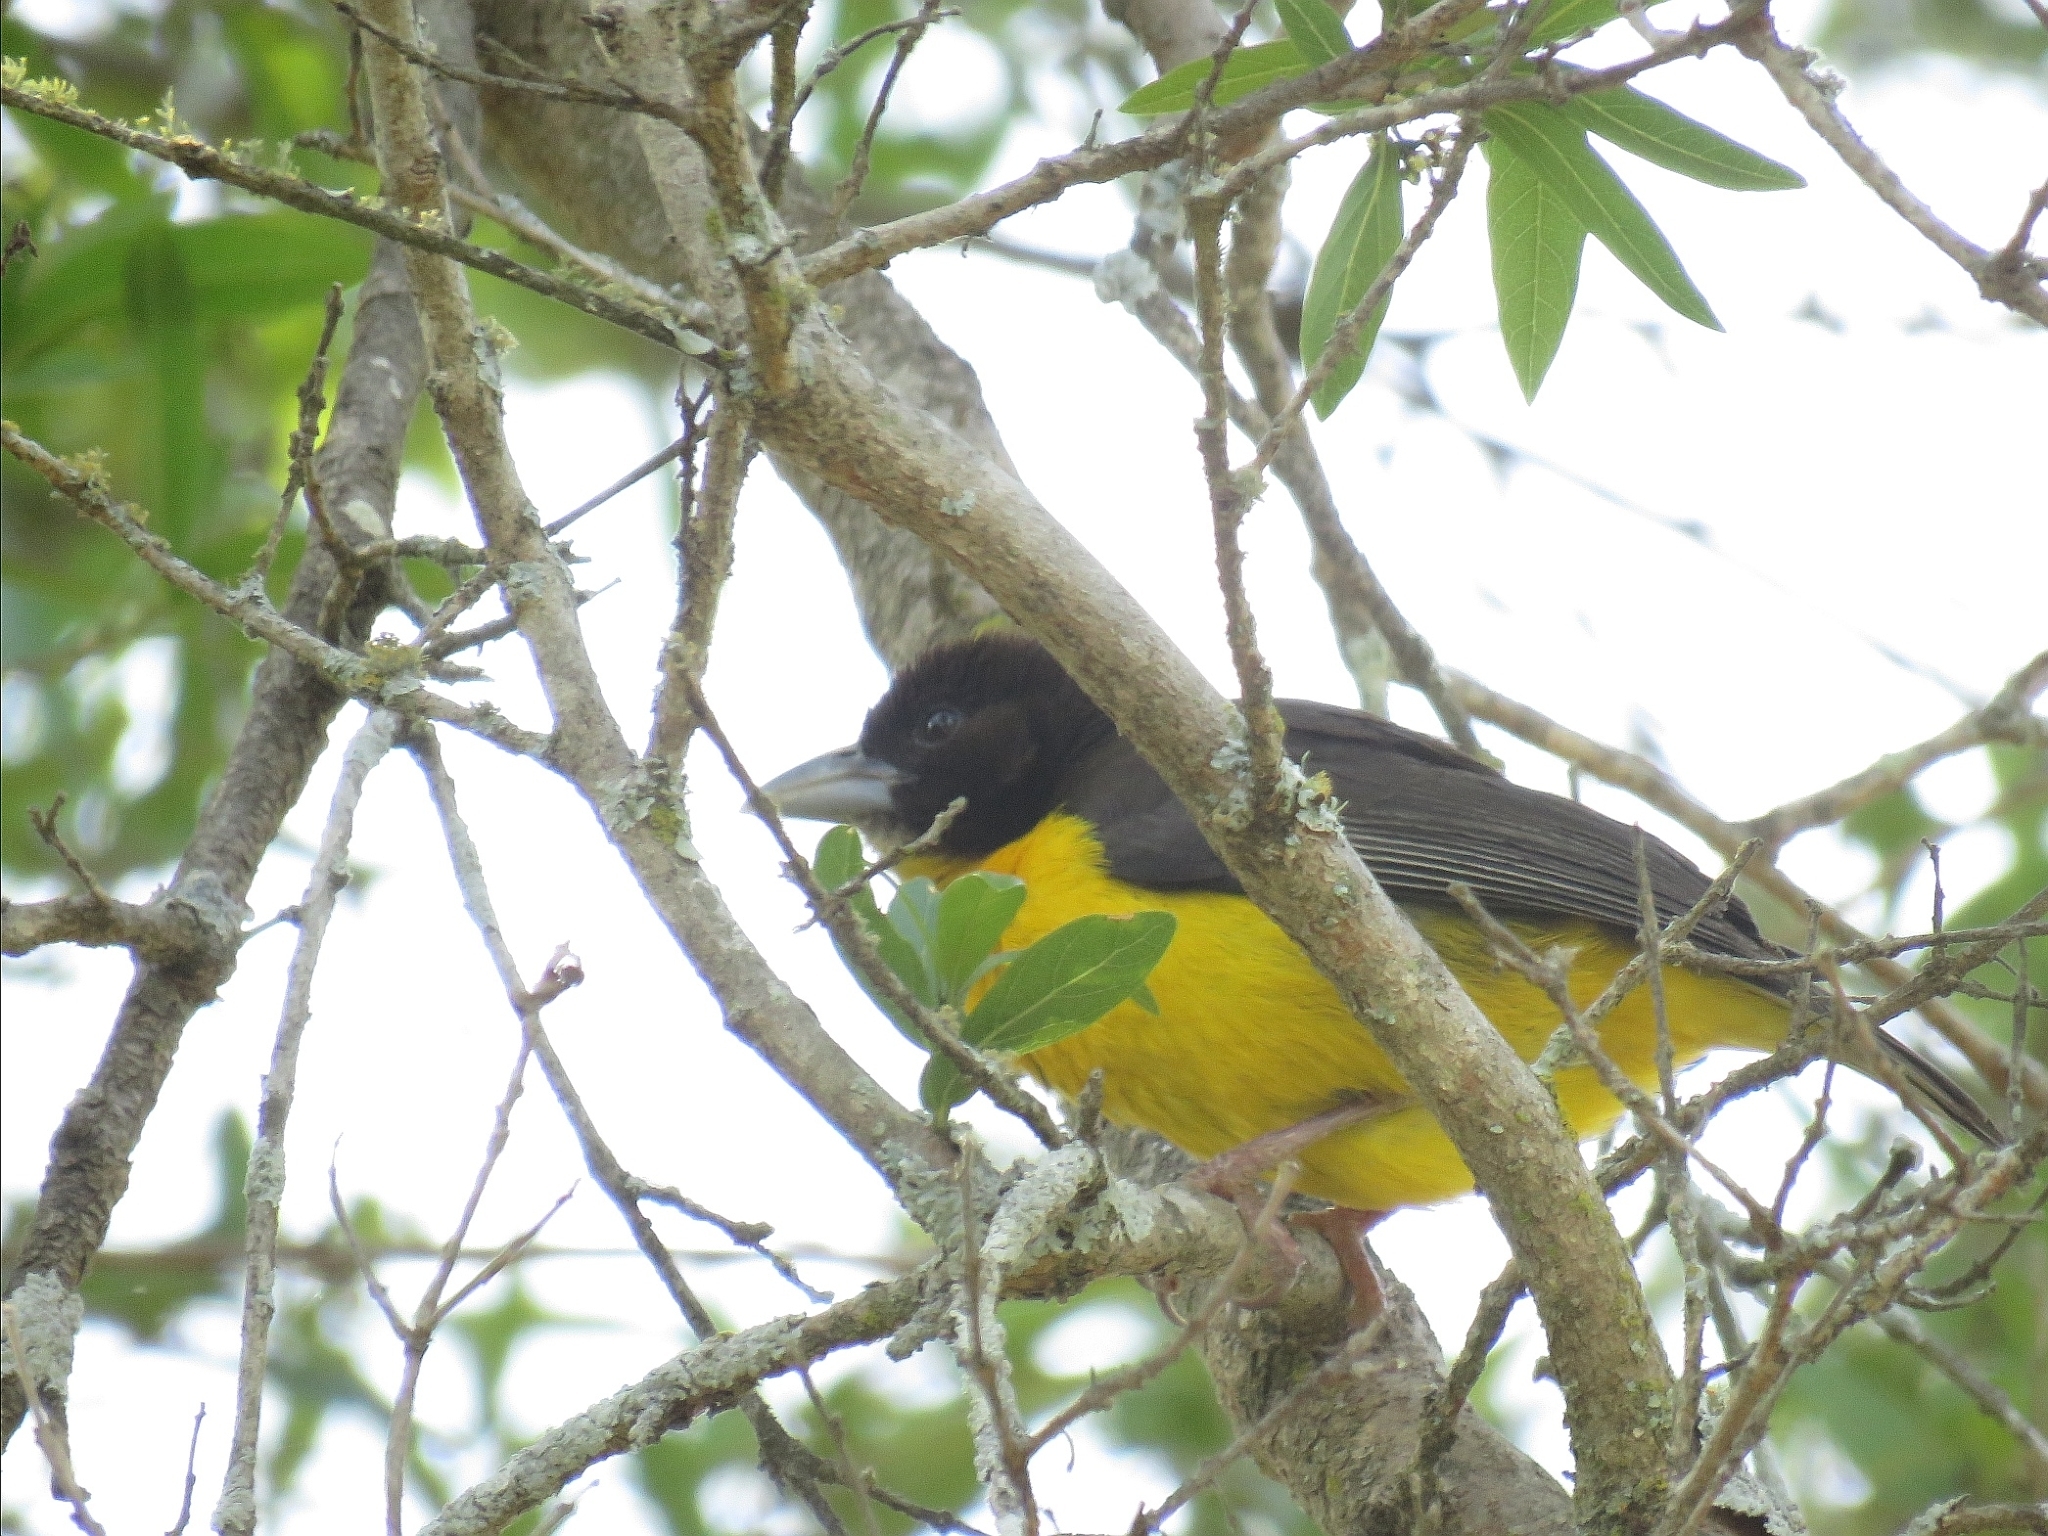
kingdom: Animalia
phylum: Chordata
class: Aves
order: Passeriformes
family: Ploceidae
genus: Ploceus
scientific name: Ploceus bicolor
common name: Dark-backed weaver
